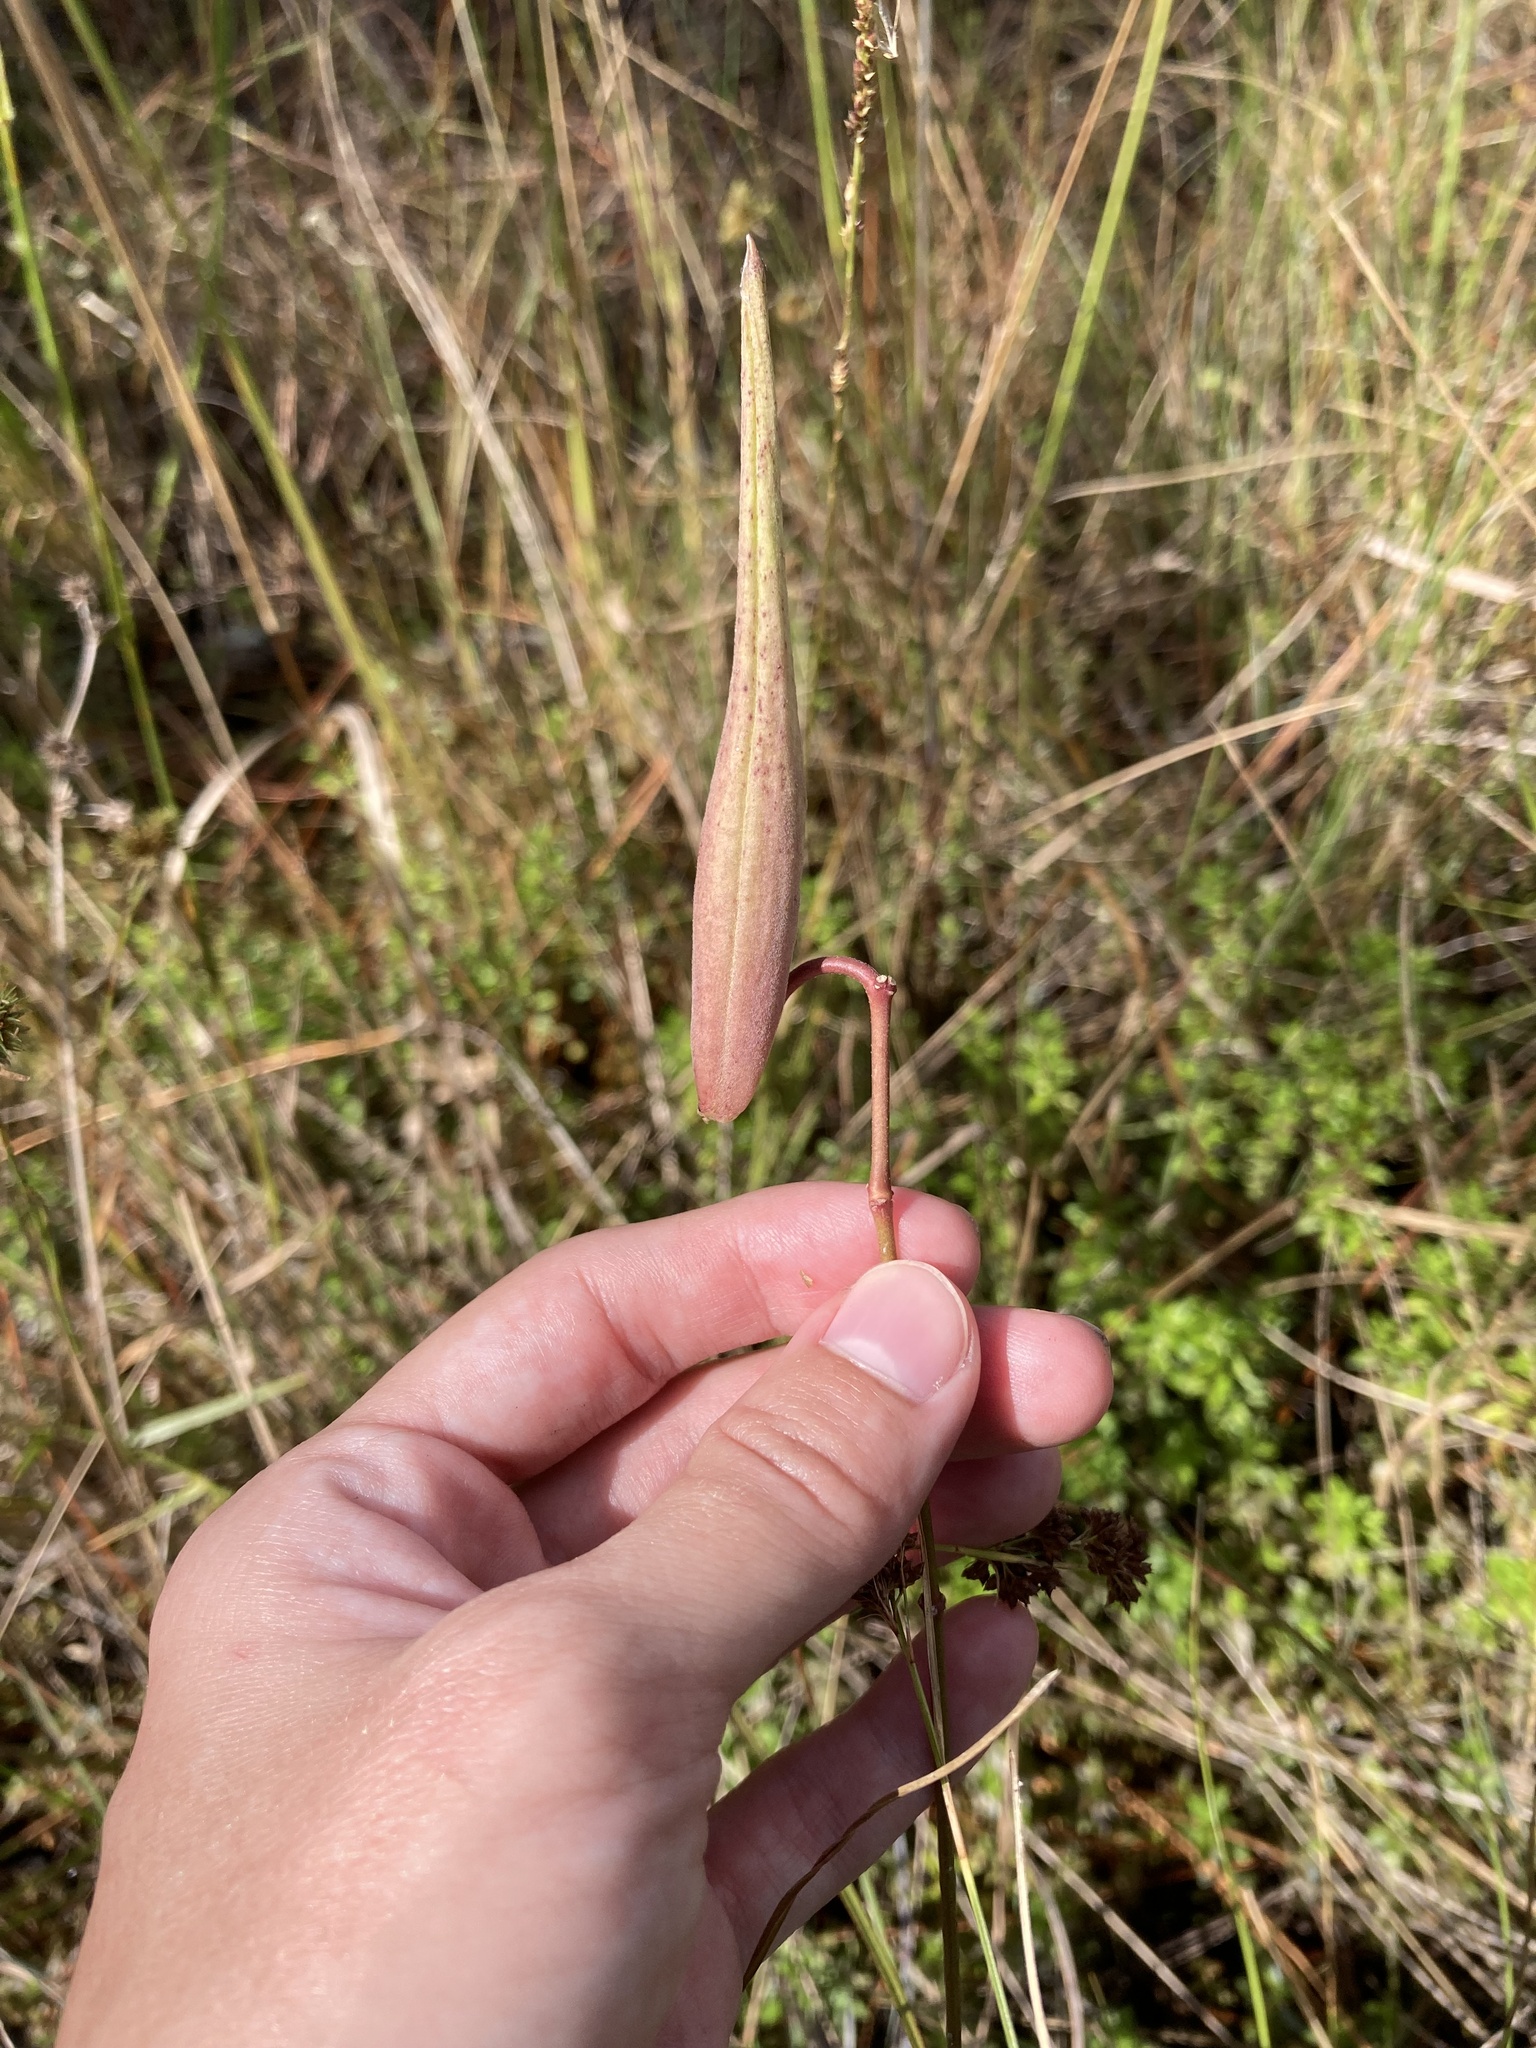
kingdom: Plantae
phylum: Tracheophyta
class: Magnoliopsida
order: Gentianales
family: Apocynaceae
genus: Asclepias
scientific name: Asclepias lanceolata
